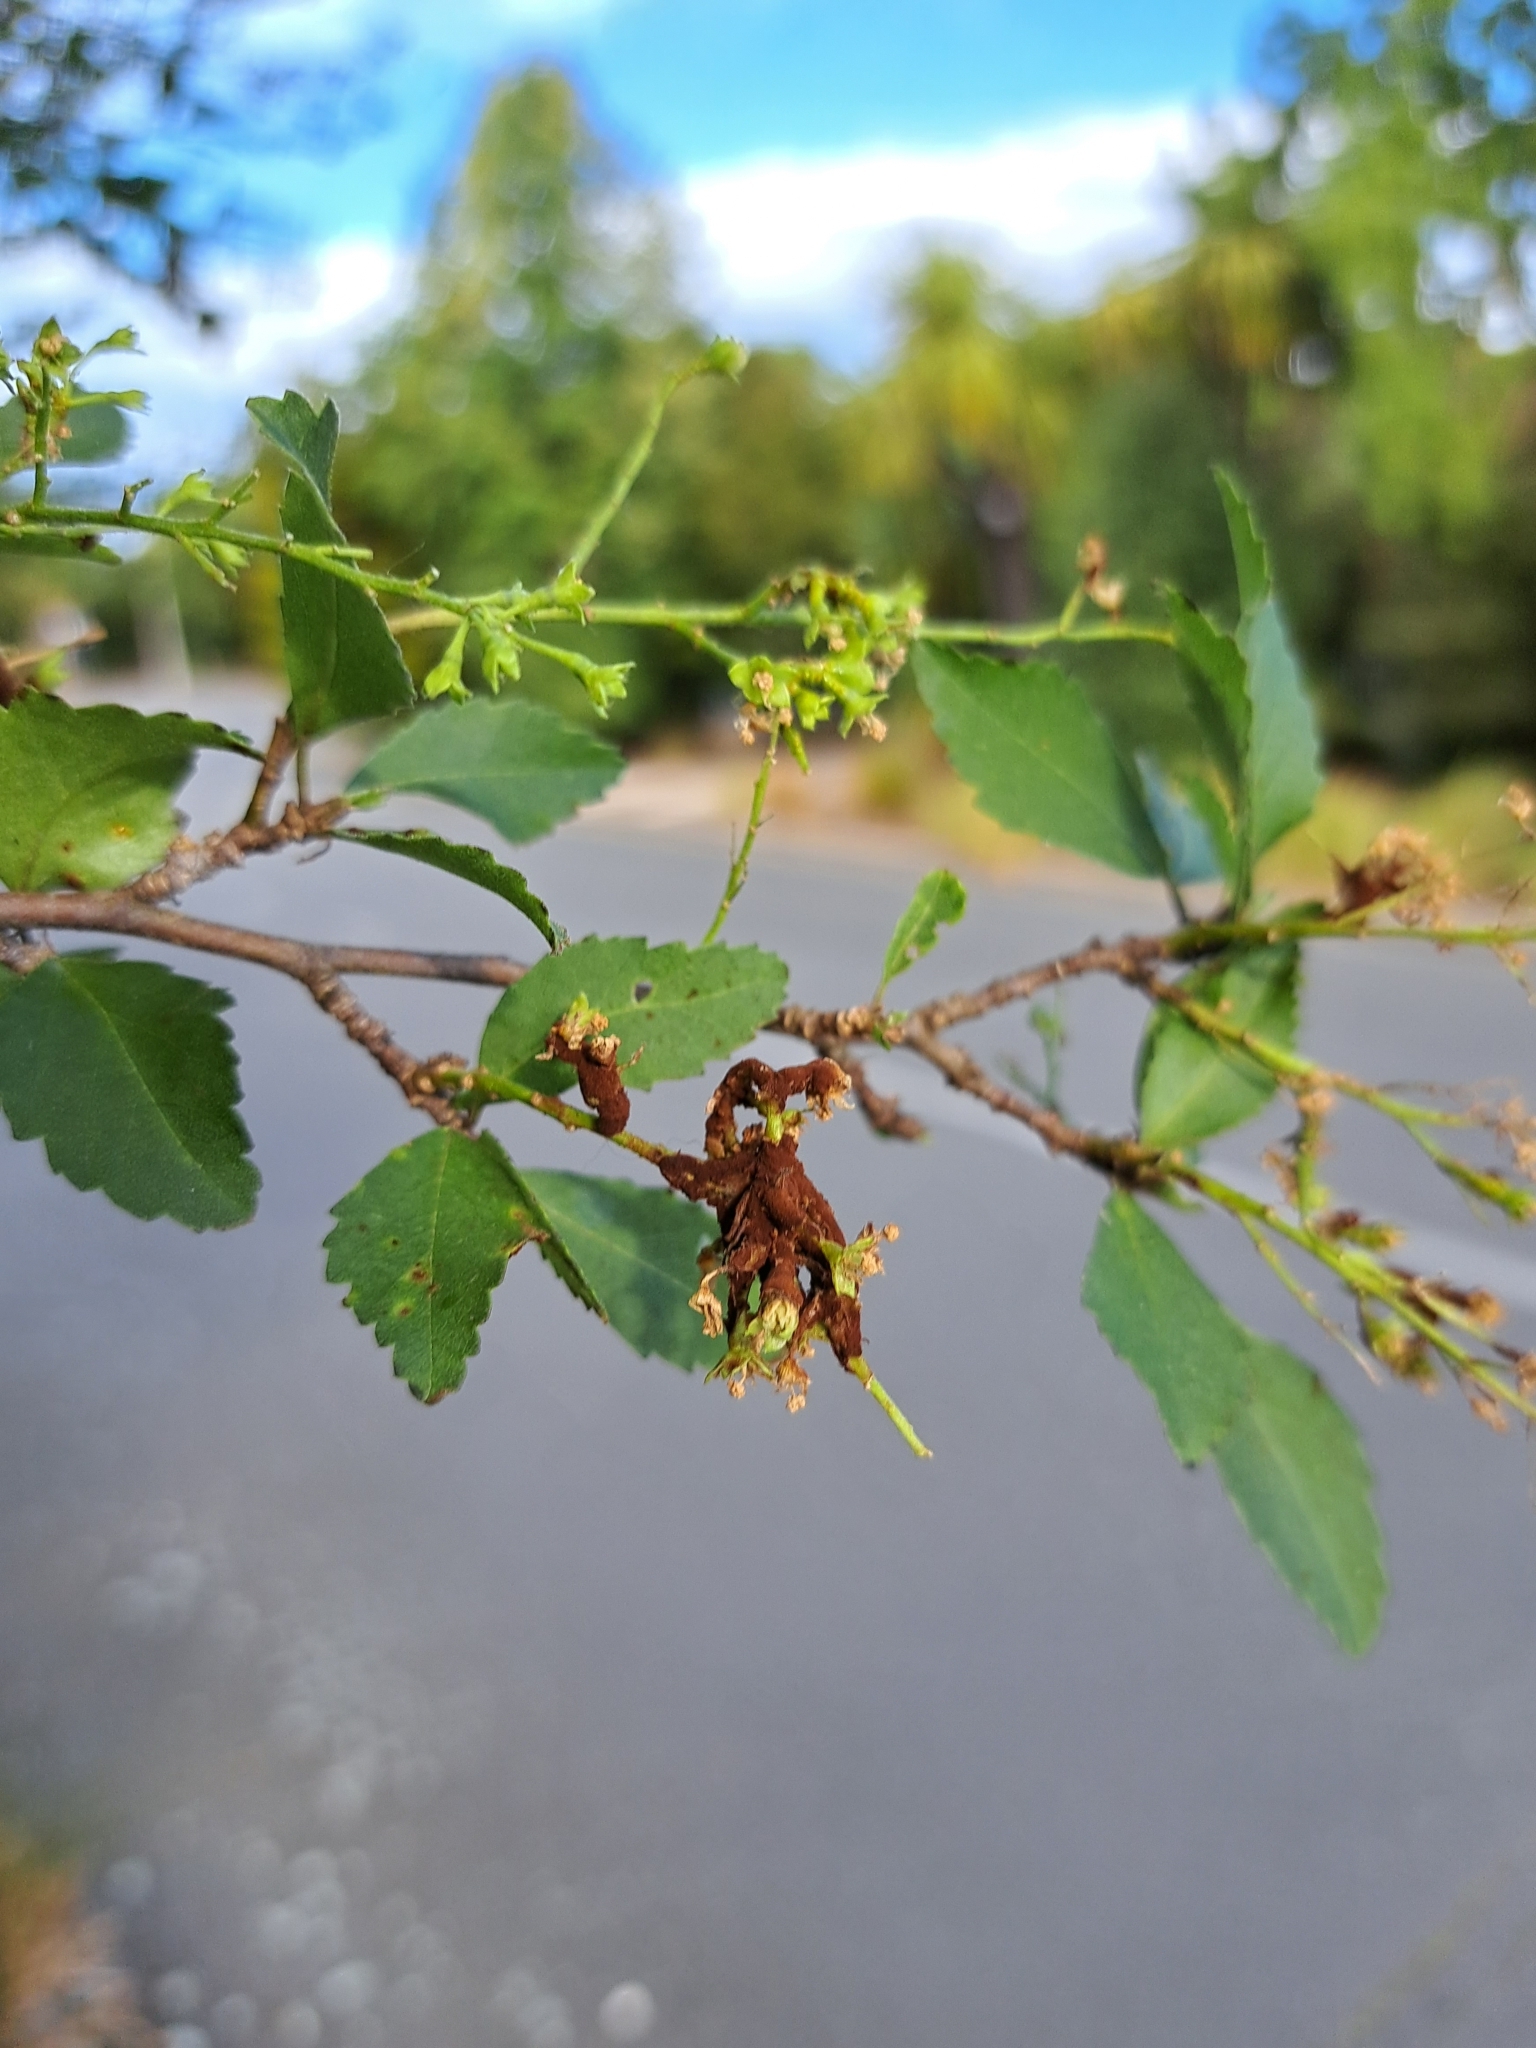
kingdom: Fungi
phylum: Basidiomycota
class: Pucciniomycetes
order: Pucciniales
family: Pucciniaceae
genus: Puccinia
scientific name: Puccinia plagianthi
